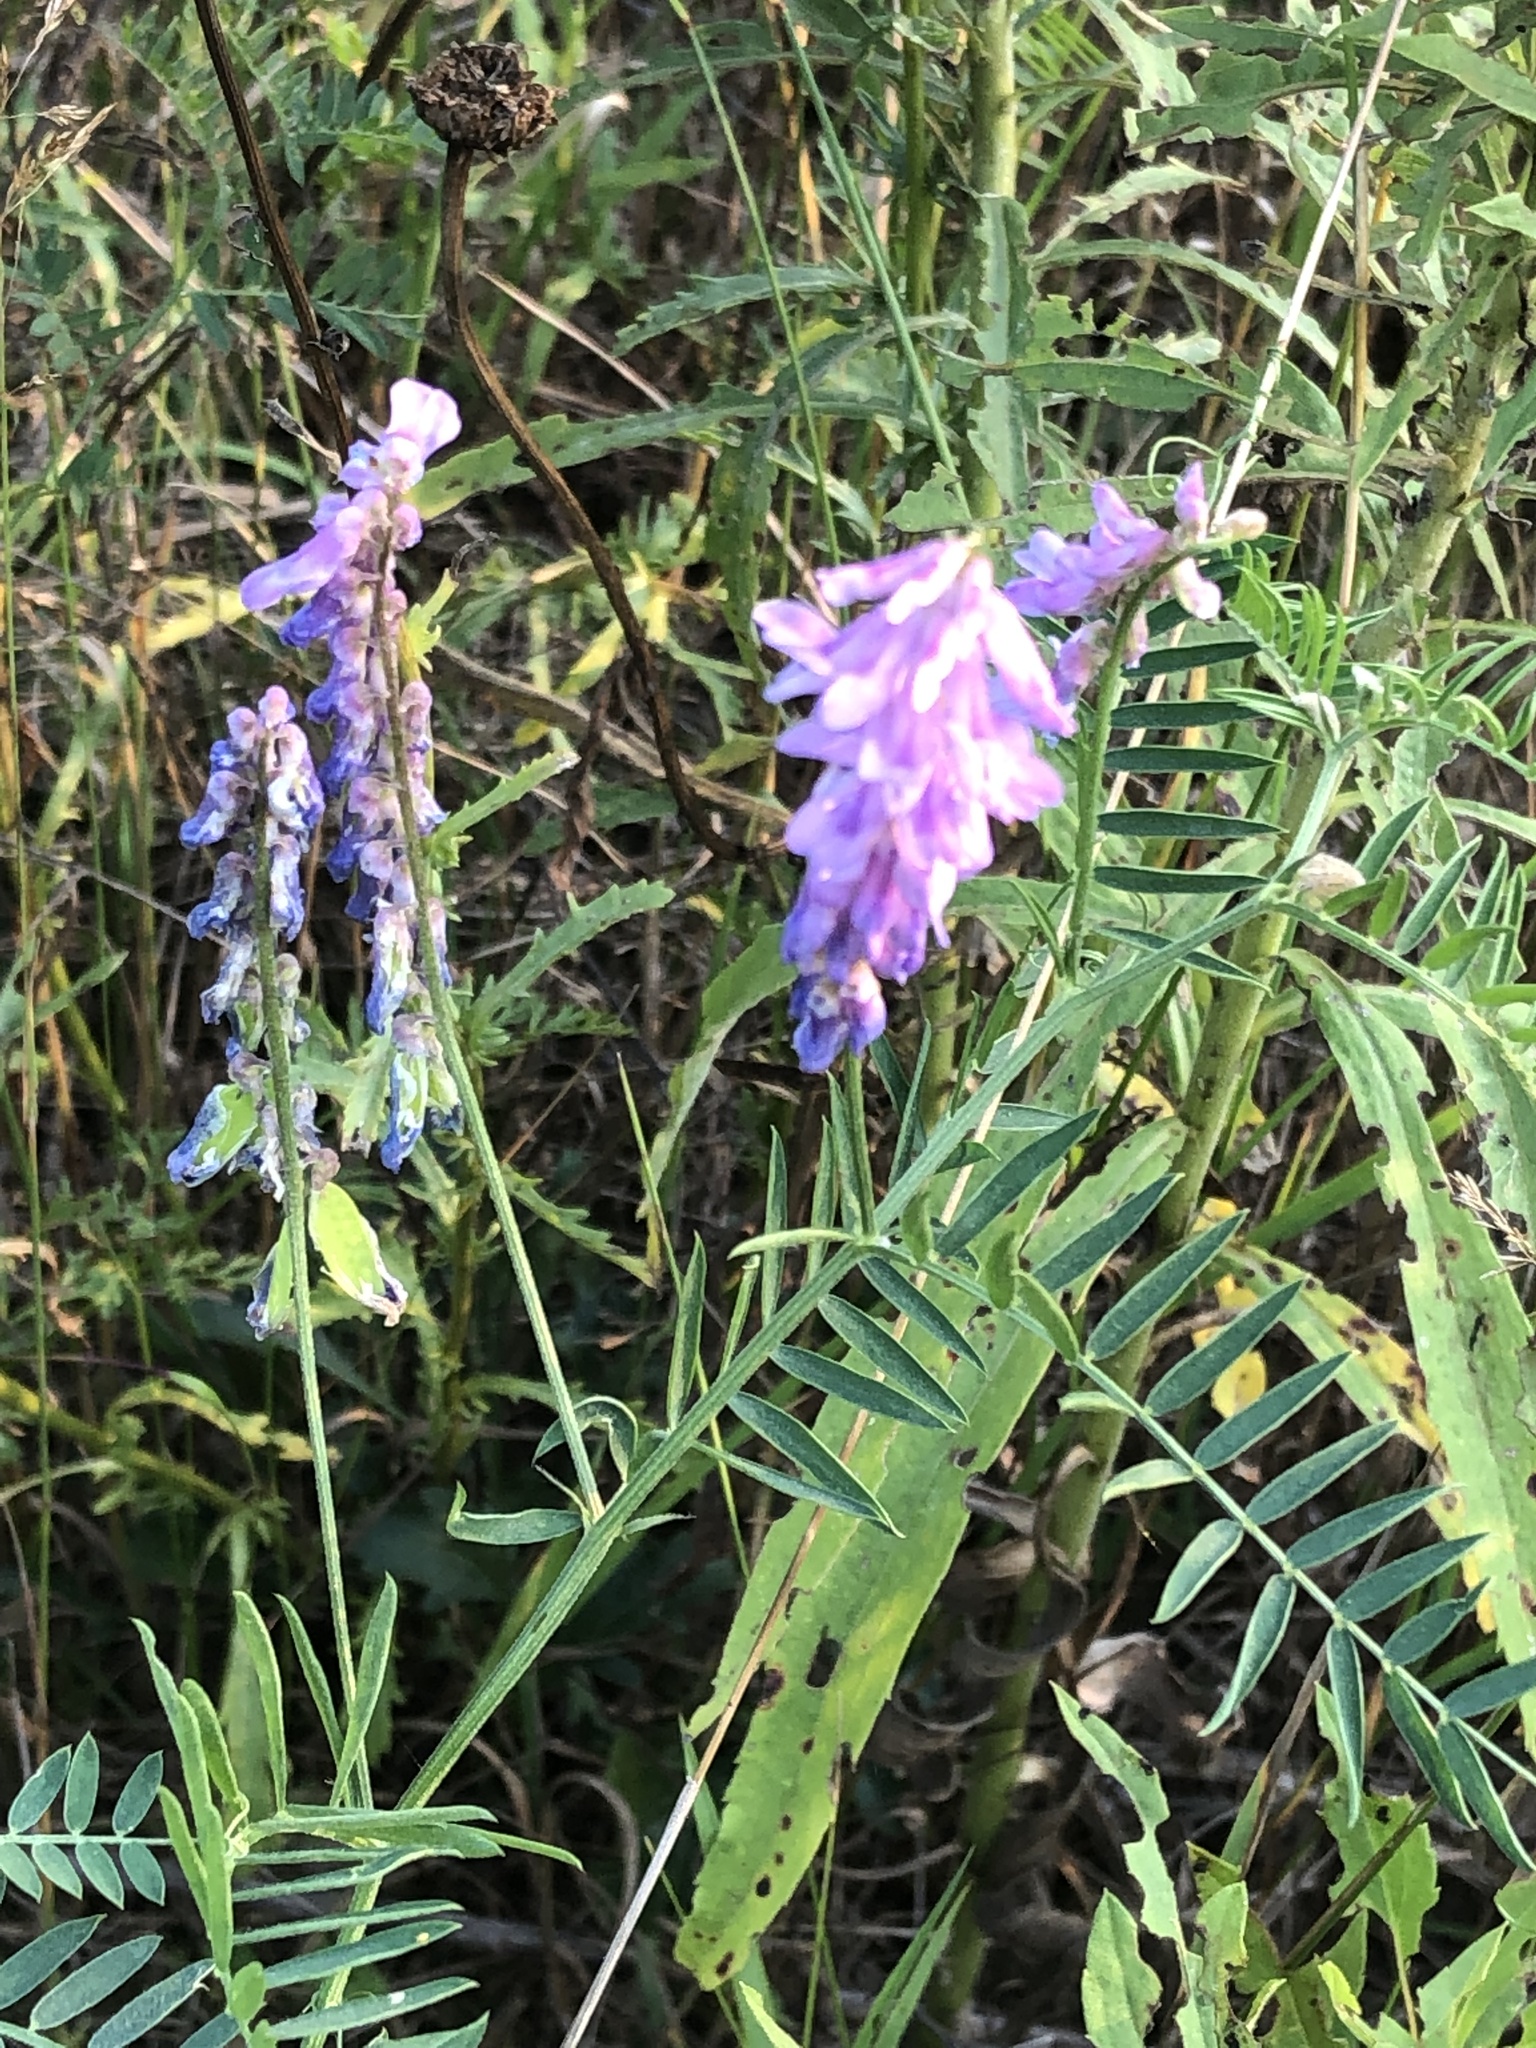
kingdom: Plantae
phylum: Tracheophyta
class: Magnoliopsida
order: Fabales
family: Fabaceae
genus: Vicia
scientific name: Vicia cracca
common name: Bird vetch
